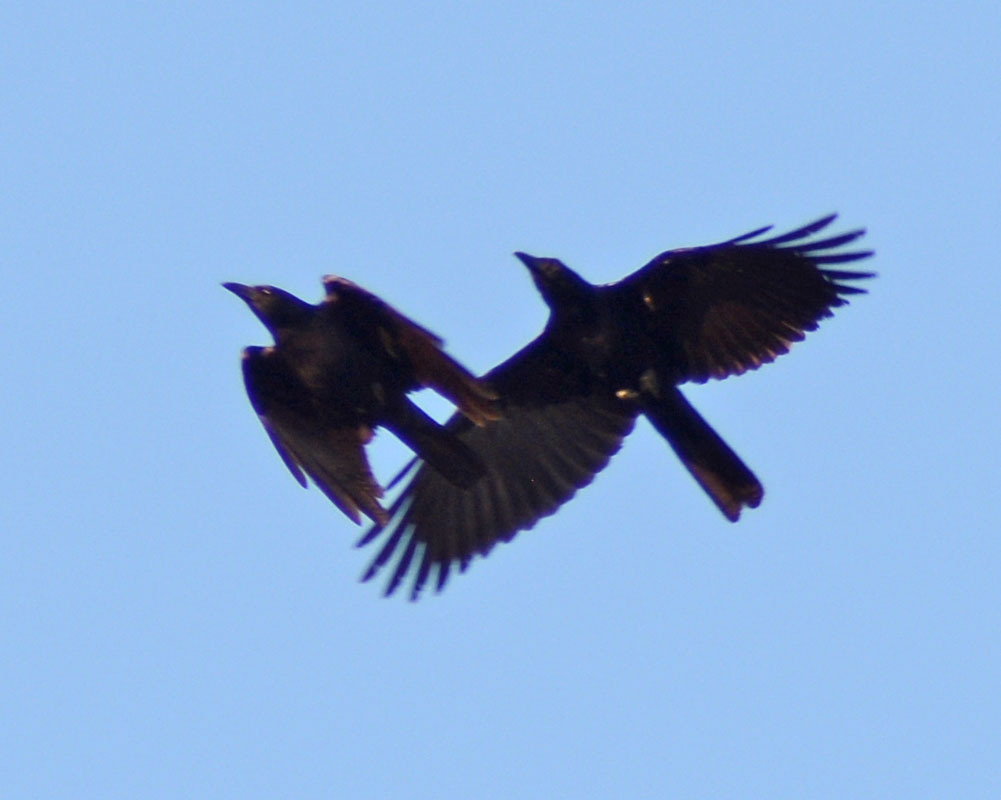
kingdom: Animalia
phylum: Chordata
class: Aves
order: Passeriformes
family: Corvidae
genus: Corvus
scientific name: Corvus sinaloae
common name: Sinaloa crow
